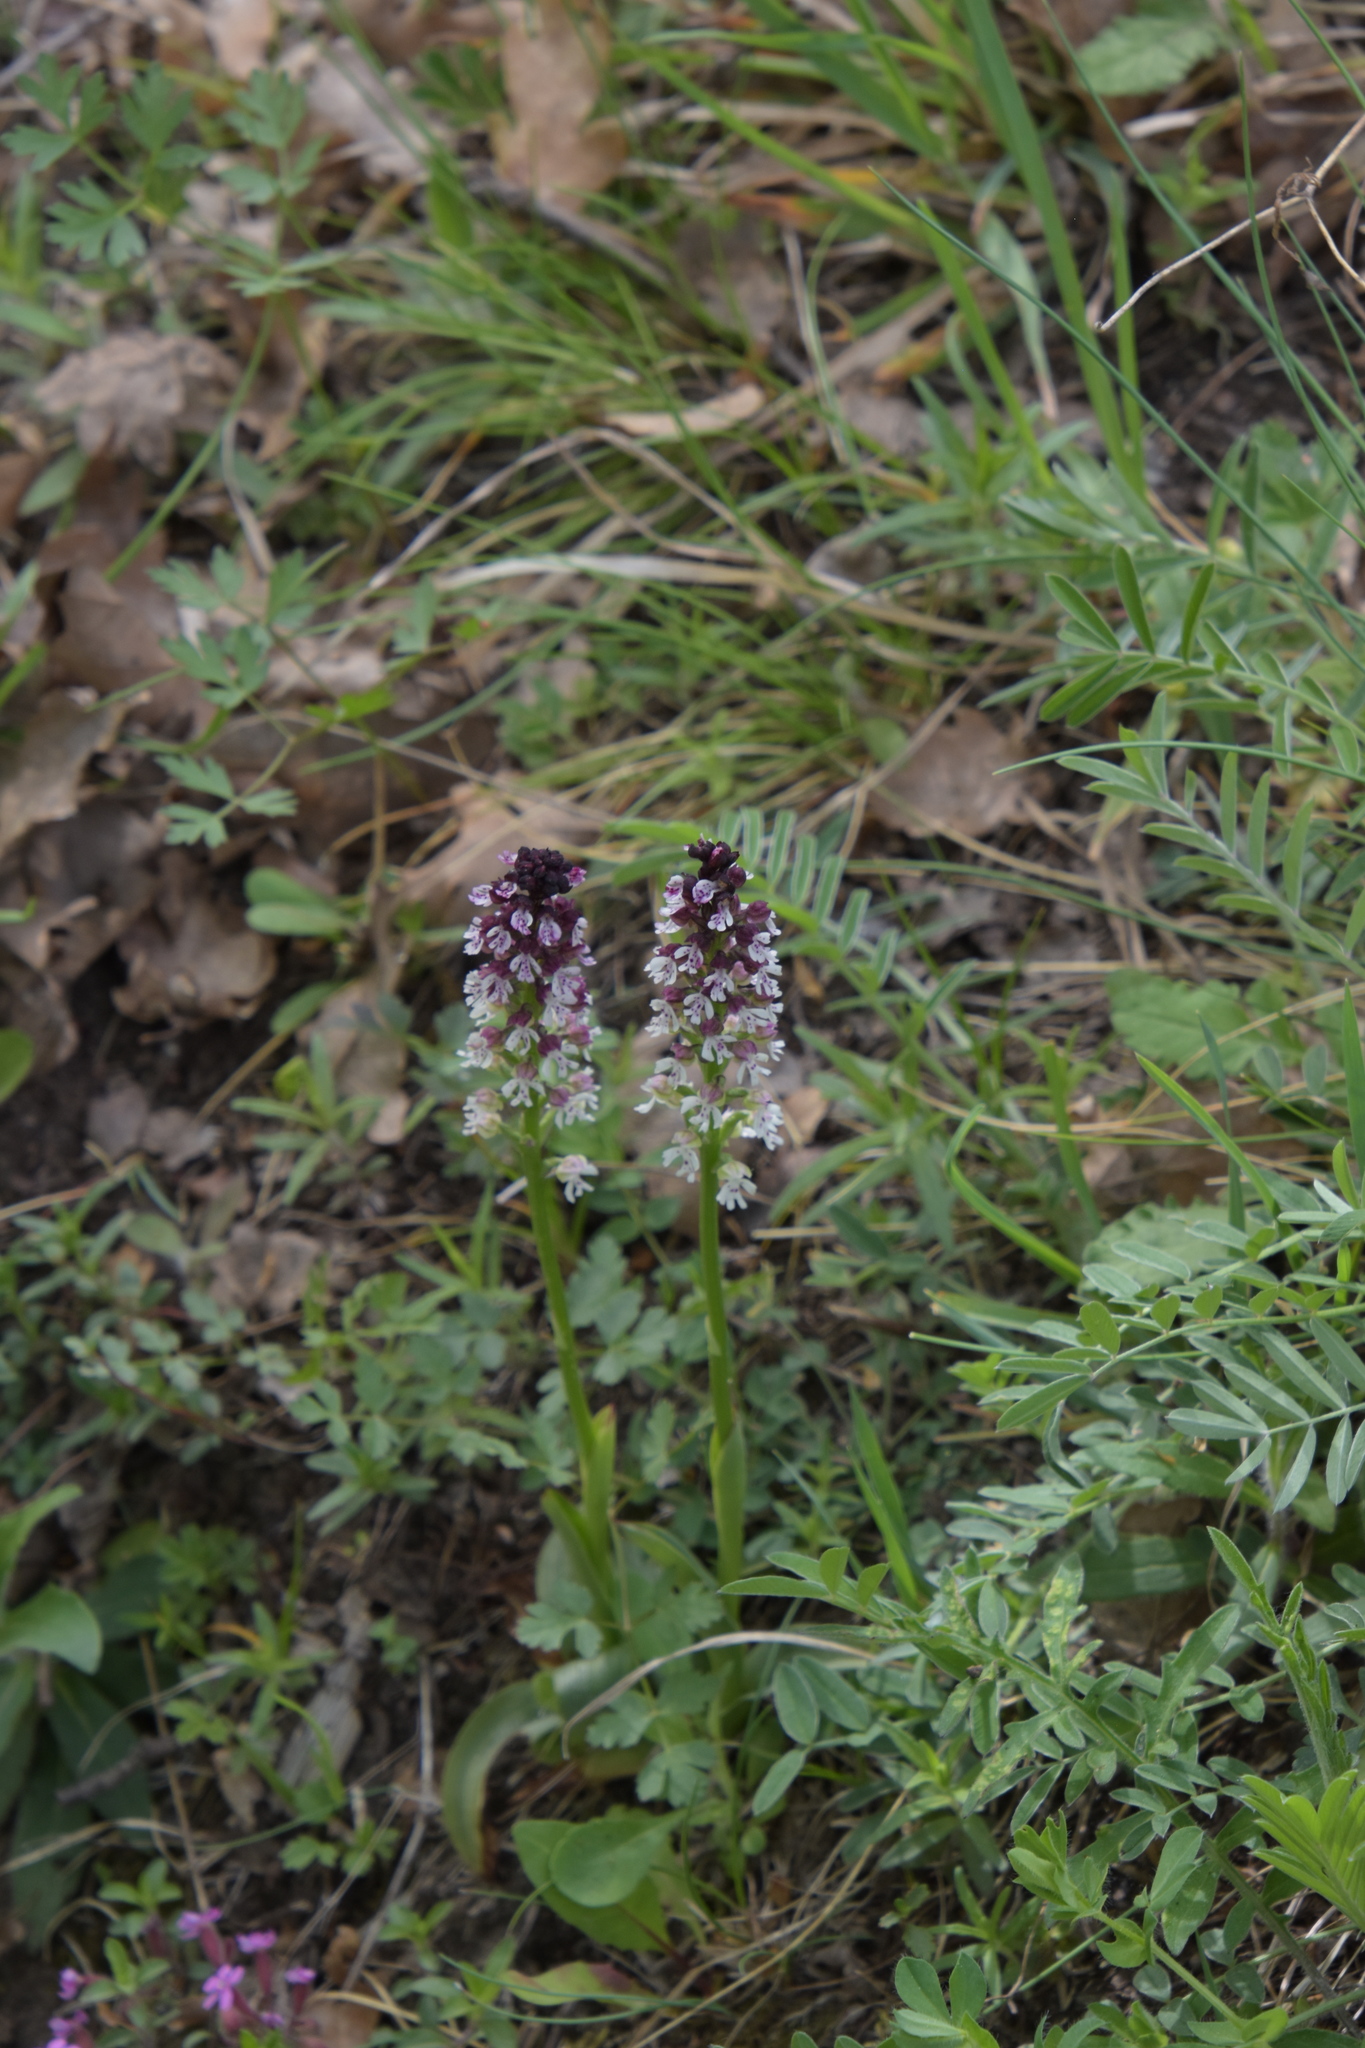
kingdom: Plantae
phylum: Tracheophyta
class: Liliopsida
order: Asparagales
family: Orchidaceae
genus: Neotinea
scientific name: Neotinea ustulata
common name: Burnt orchid
